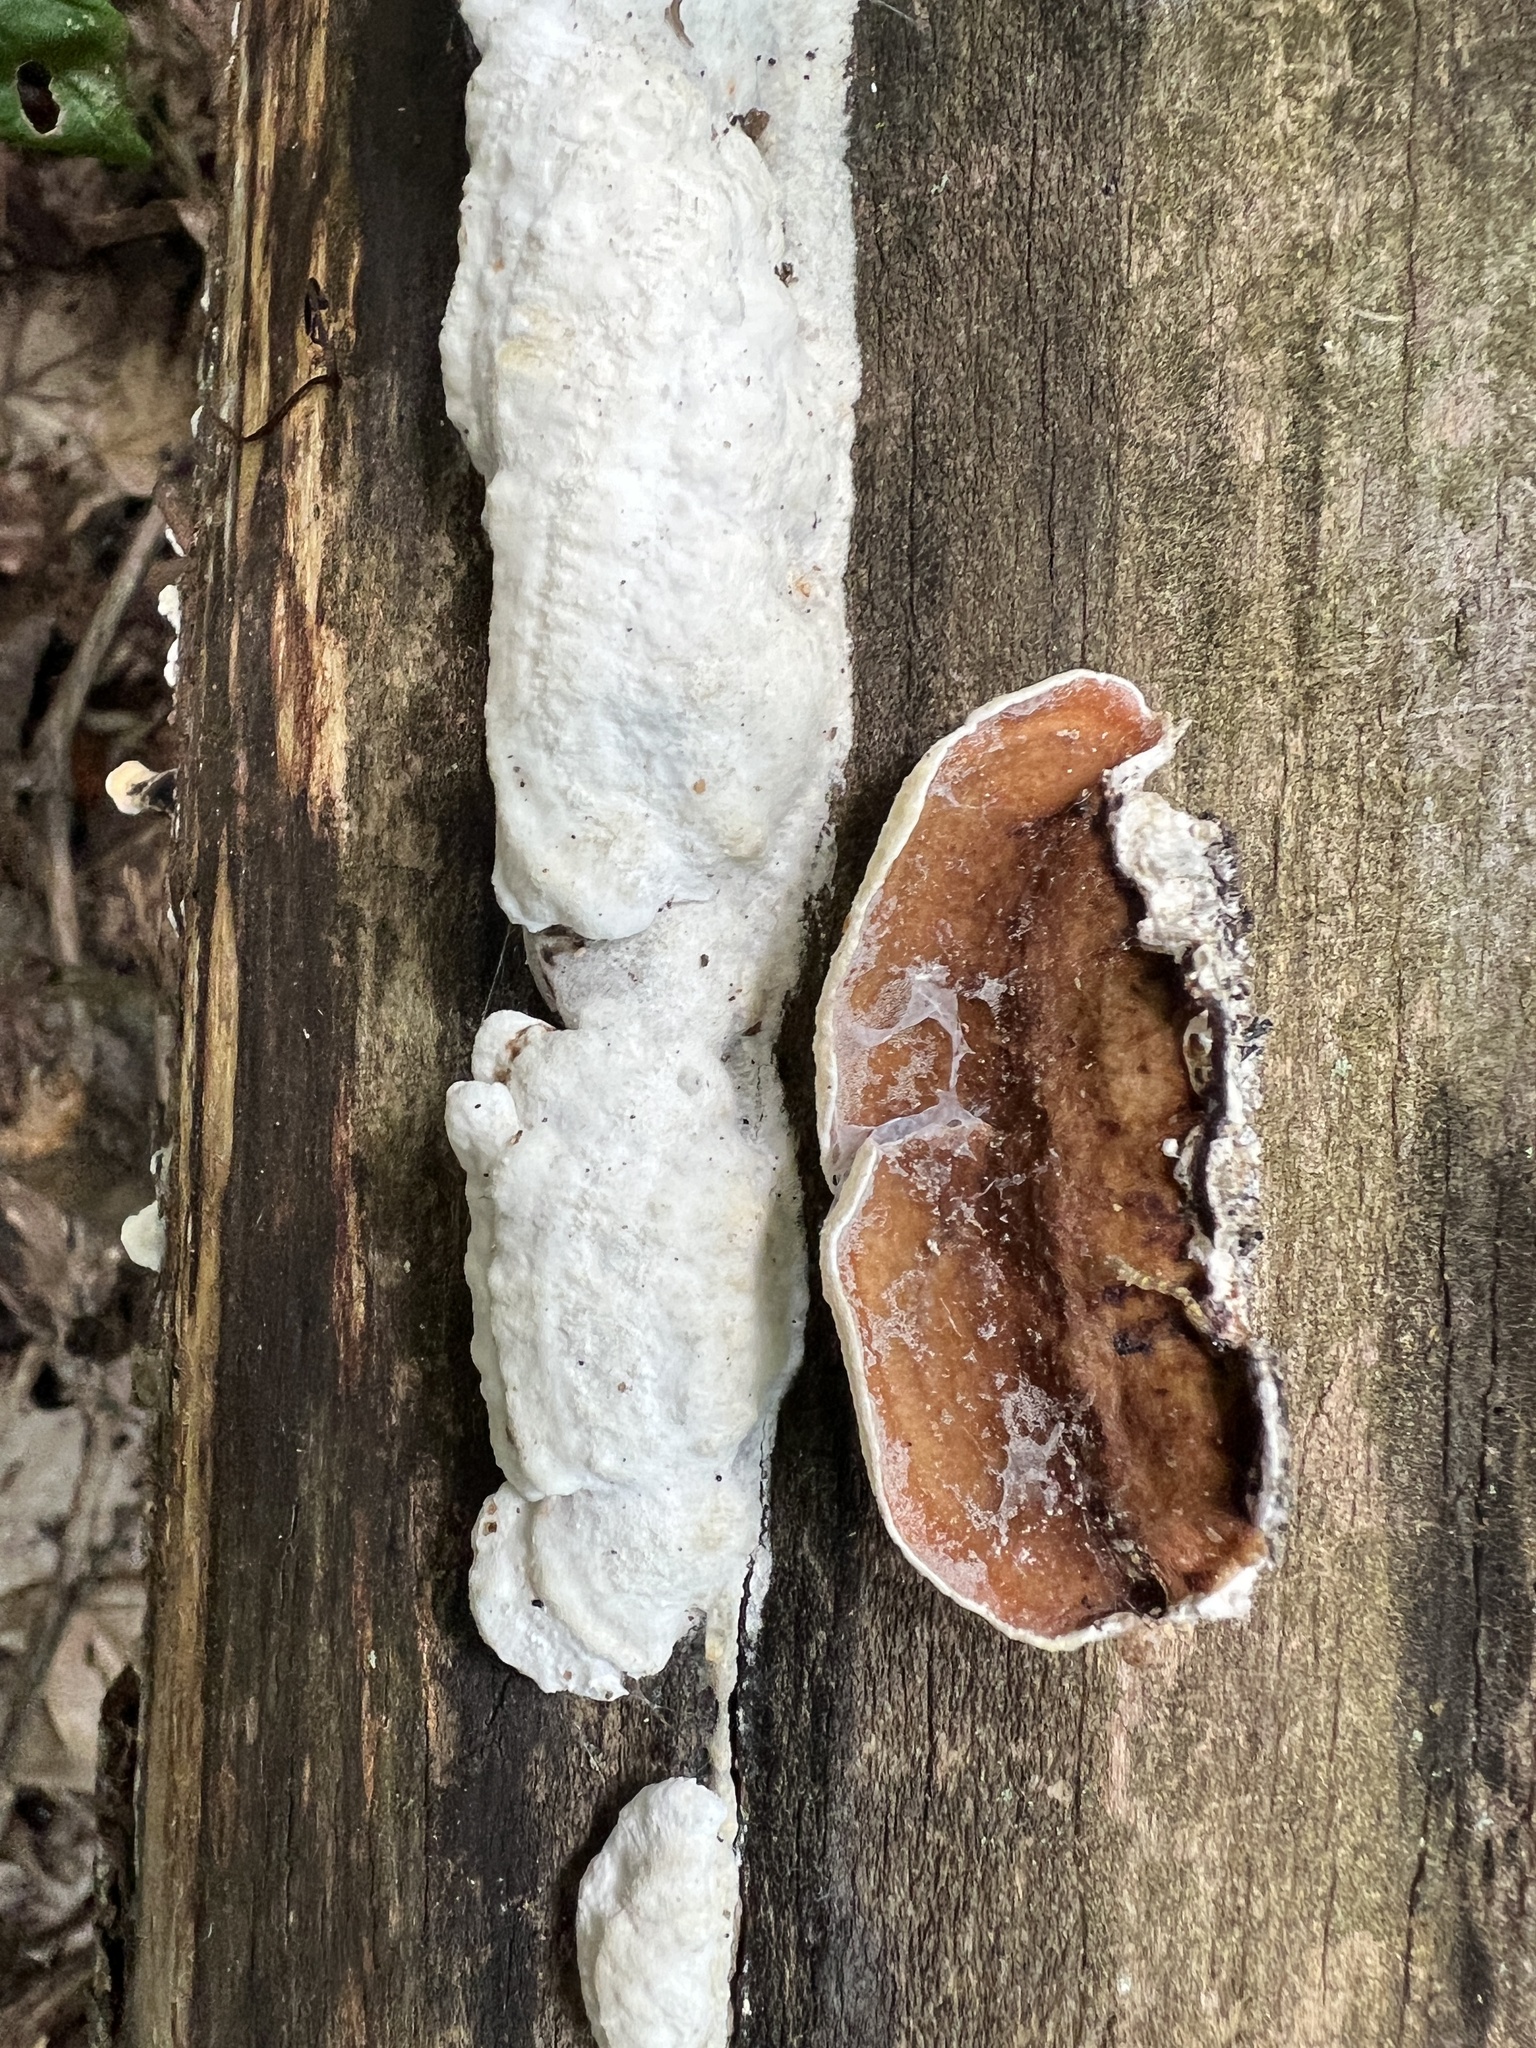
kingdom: Fungi
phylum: Basidiomycota
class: Agaricomycetes
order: Polyporales
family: Irpicaceae
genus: Vitreoporus
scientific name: Vitreoporus dichrous
